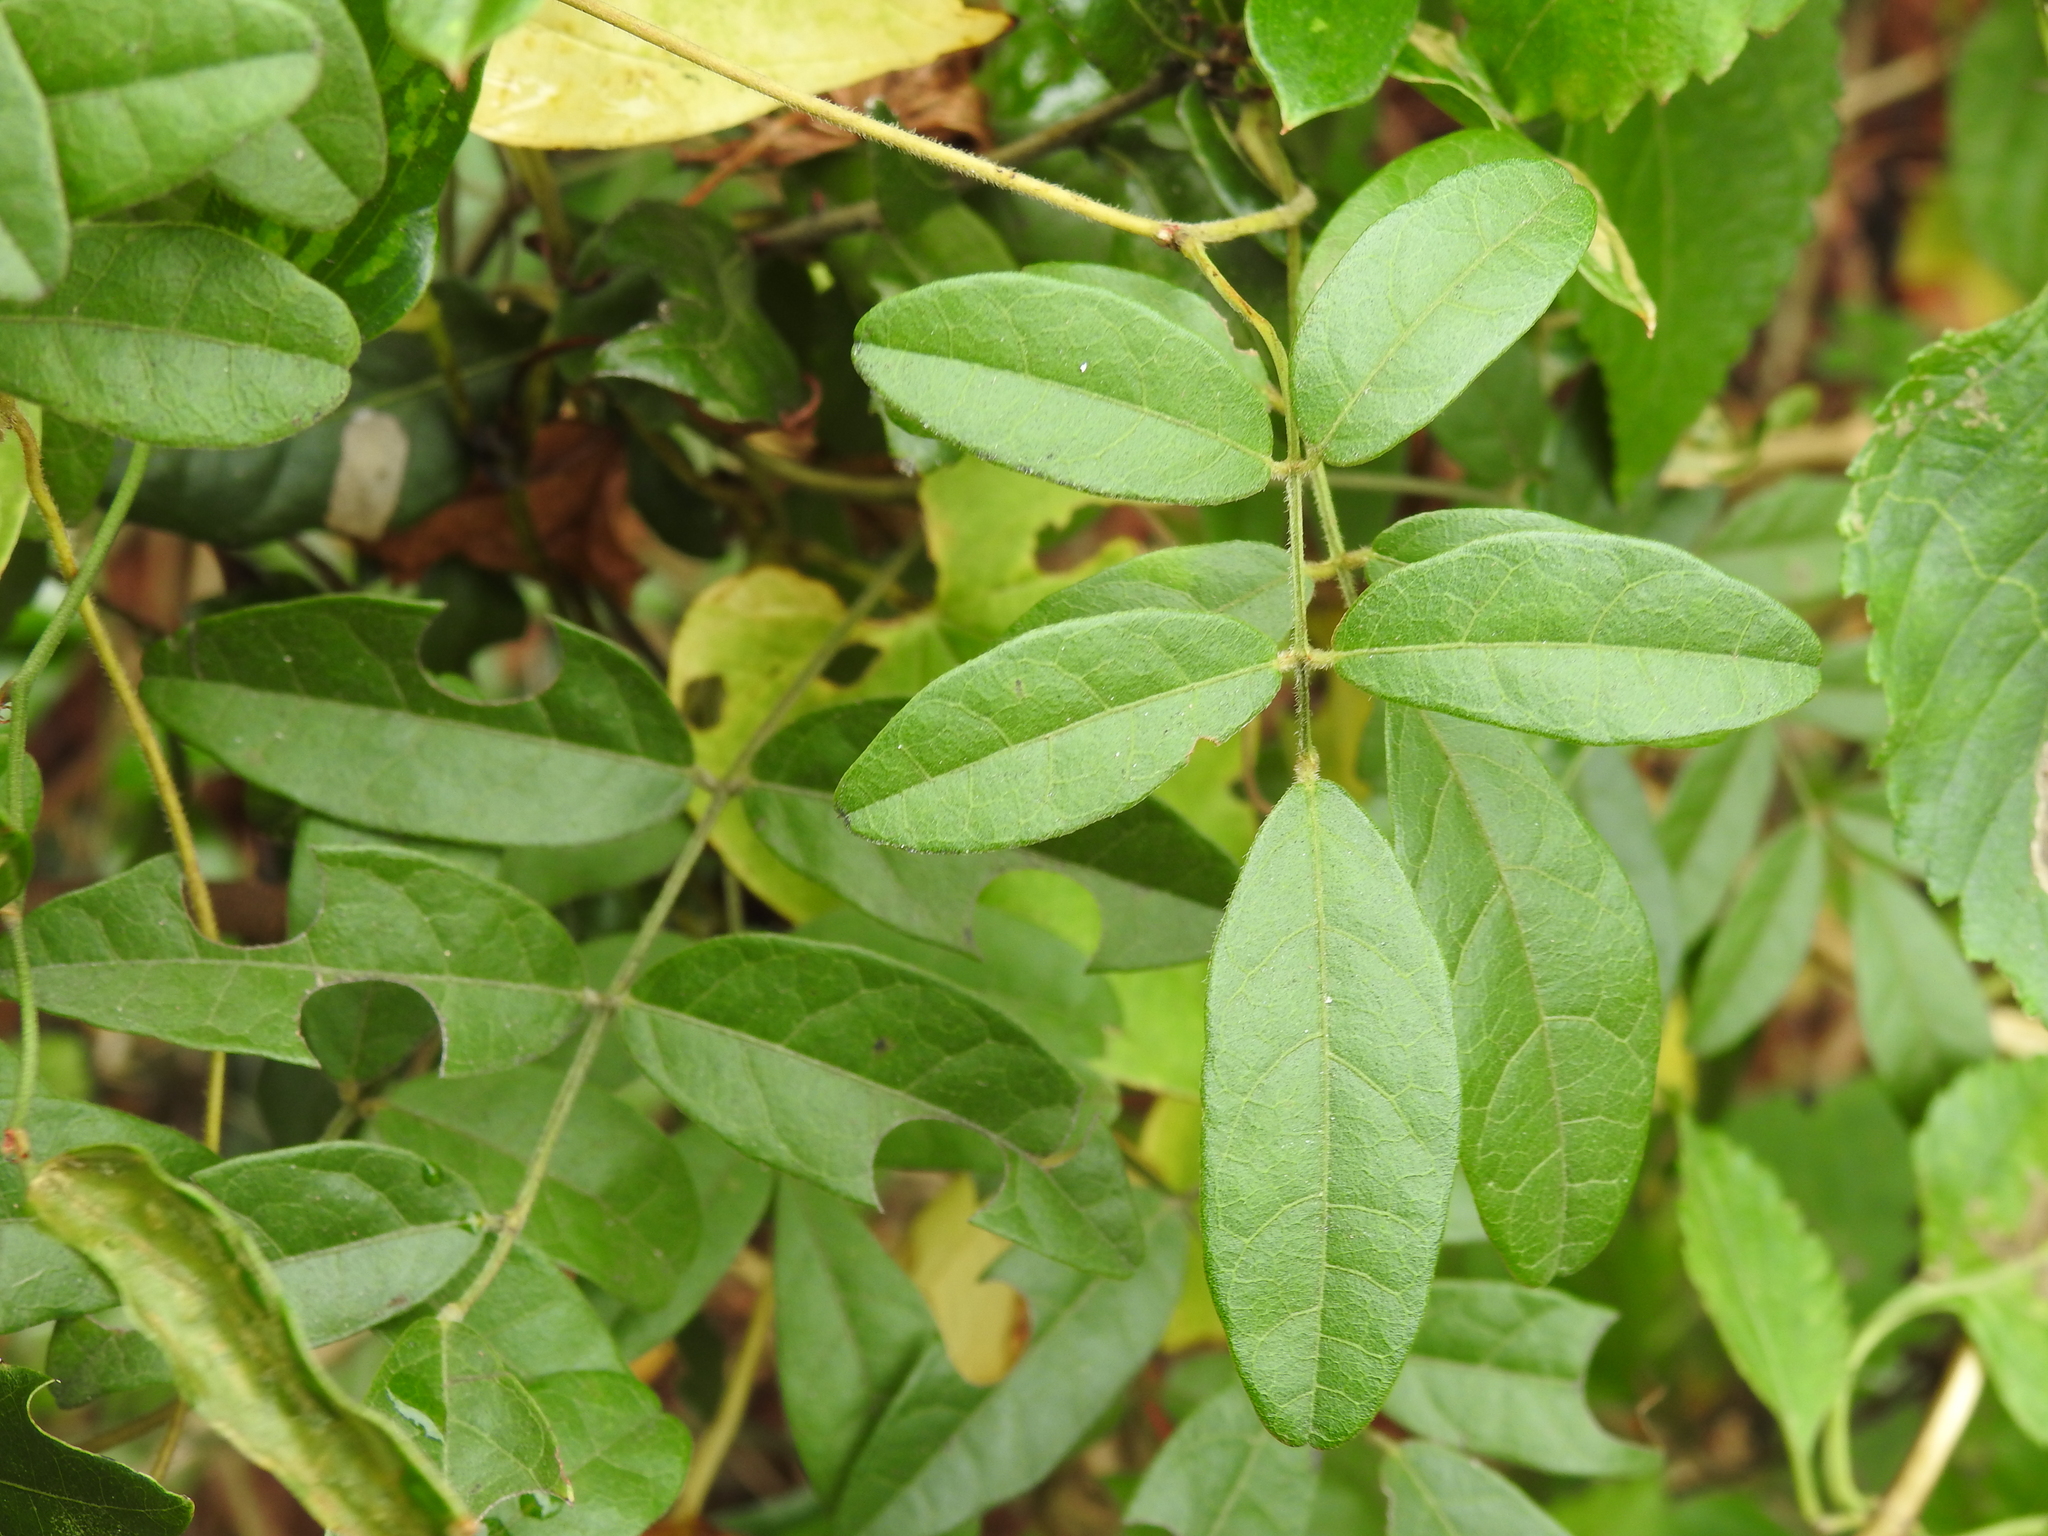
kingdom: Plantae
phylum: Tracheophyta
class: Magnoliopsida
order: Fabales
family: Fabaceae
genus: Galactia
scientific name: Galactia elliottii
